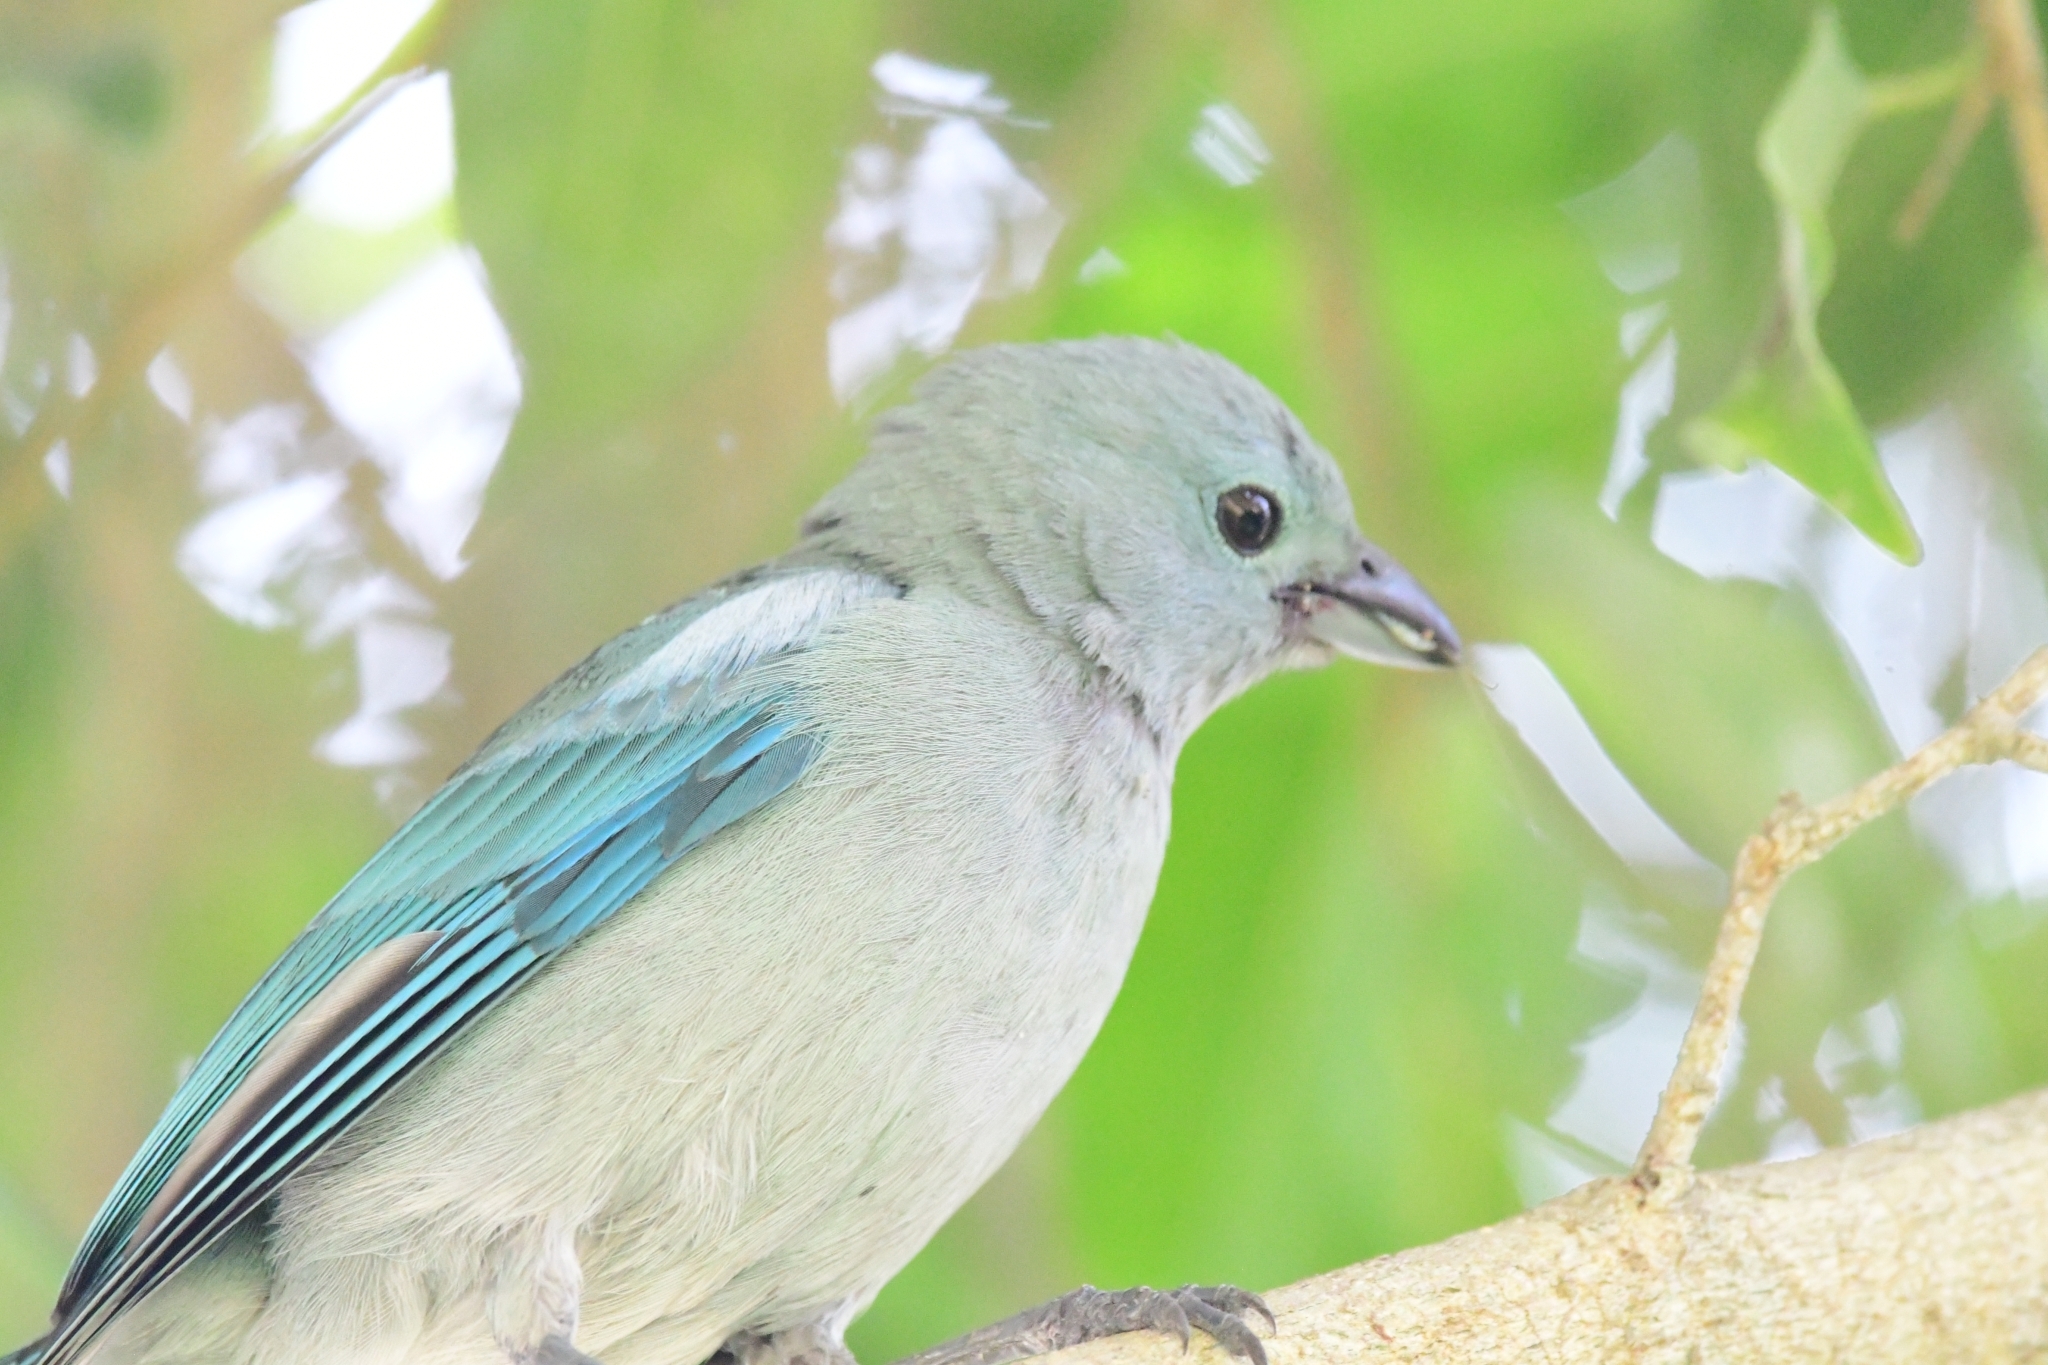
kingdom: Animalia
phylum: Chordata
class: Aves
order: Passeriformes
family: Thraupidae
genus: Thraupis
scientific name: Thraupis episcopus
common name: Blue-grey tanager
